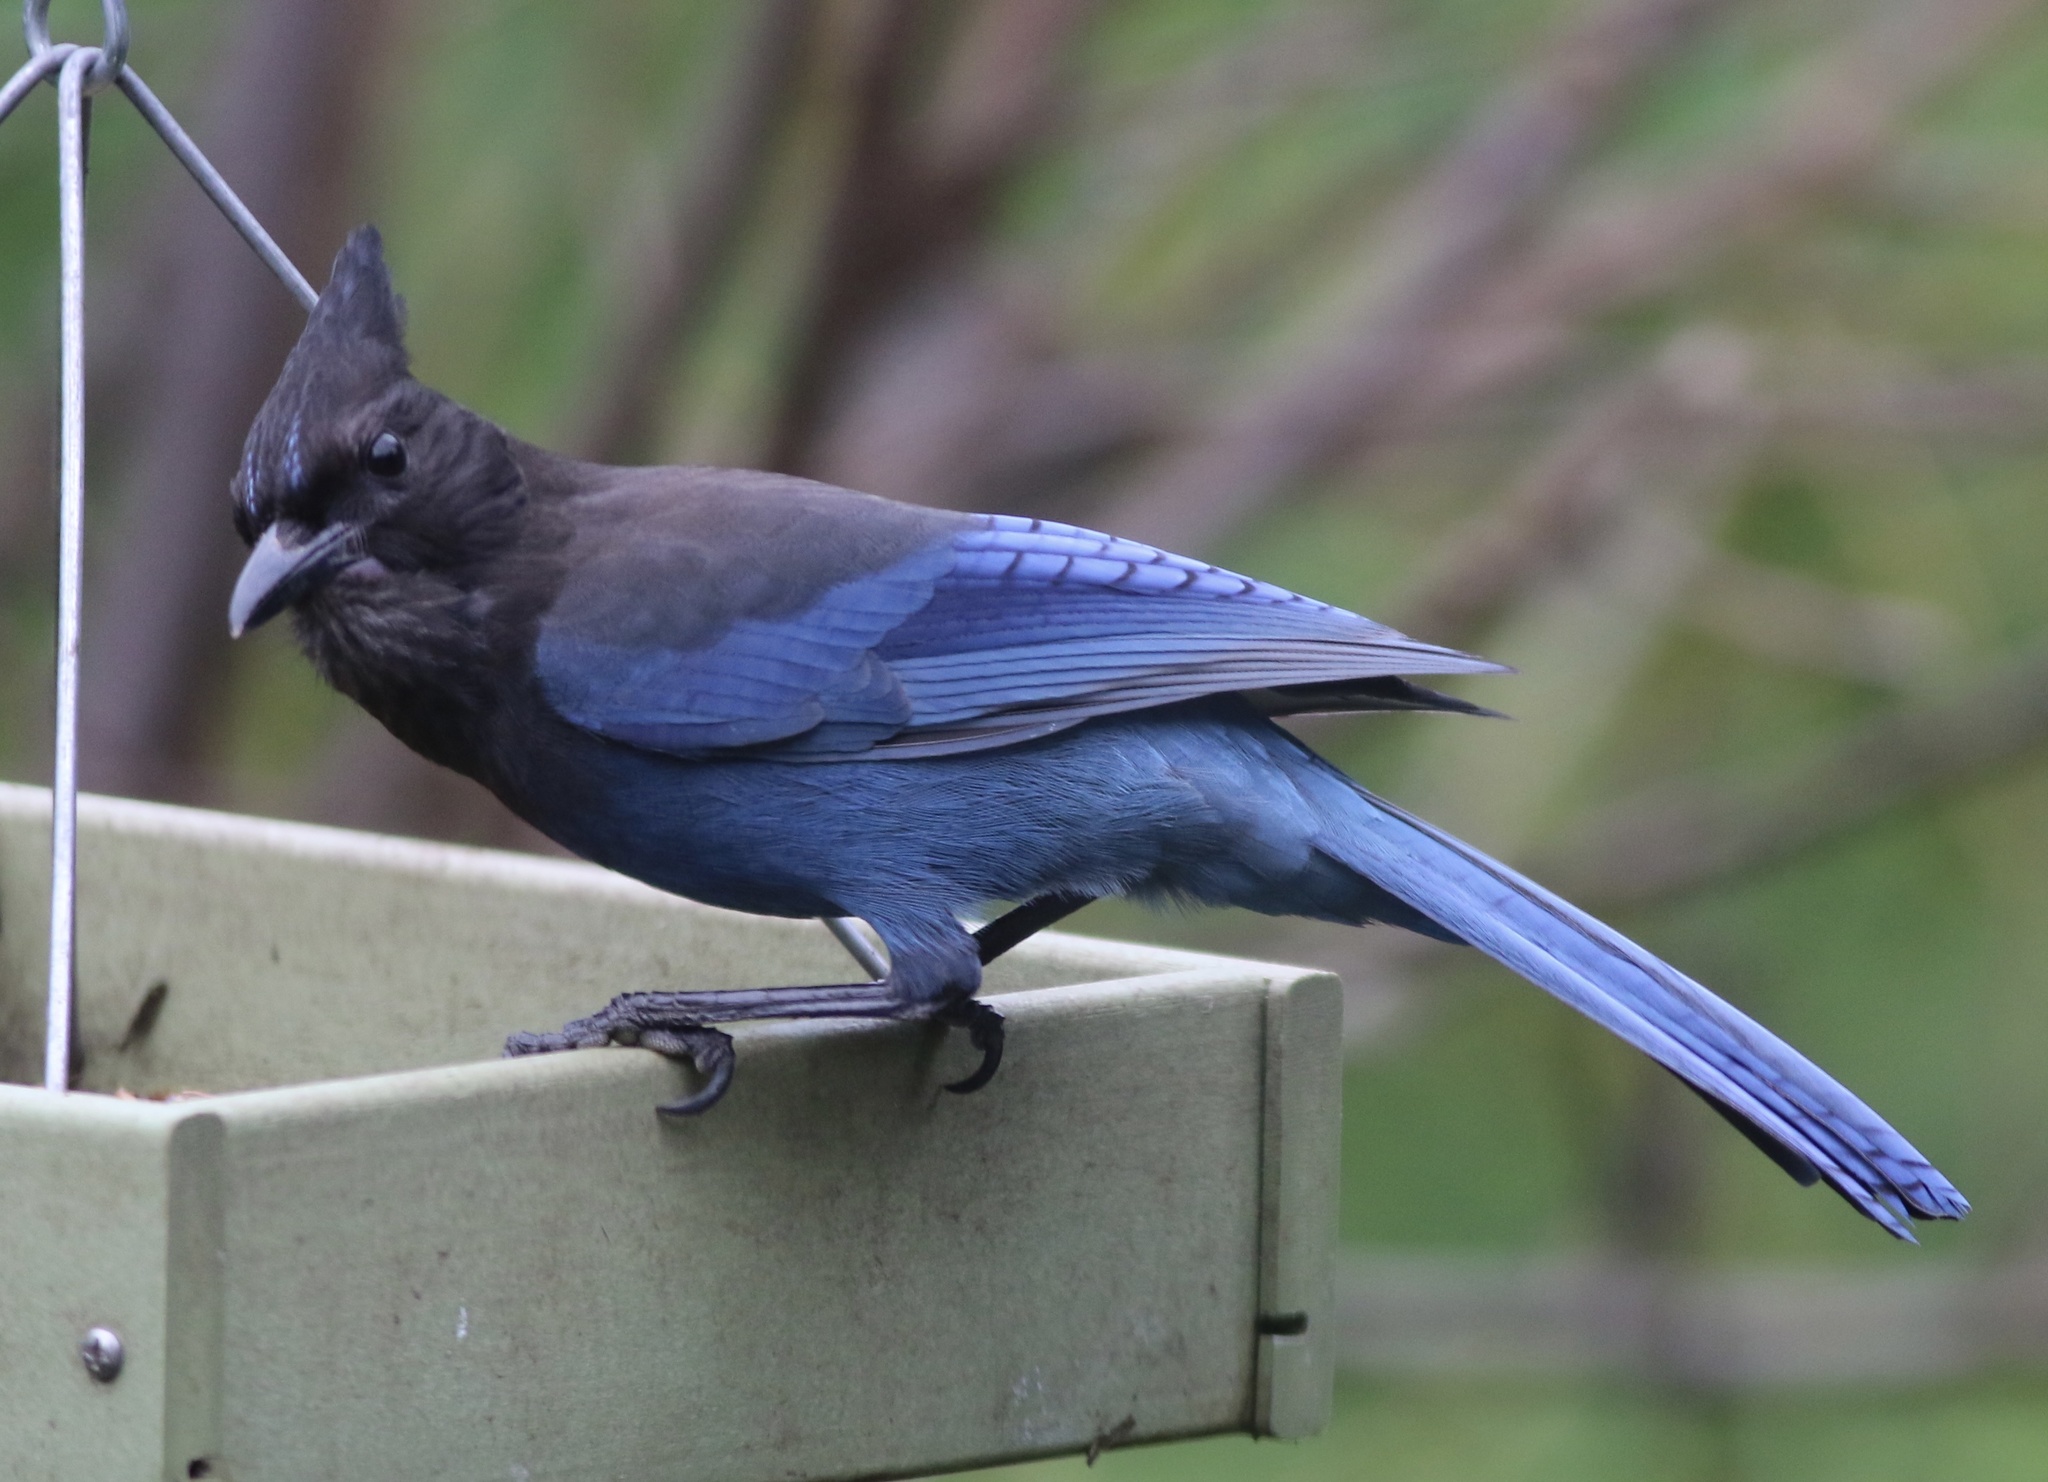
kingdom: Animalia
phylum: Chordata
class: Aves
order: Passeriformes
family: Corvidae
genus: Cyanocitta
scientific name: Cyanocitta stelleri
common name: Steller's jay
